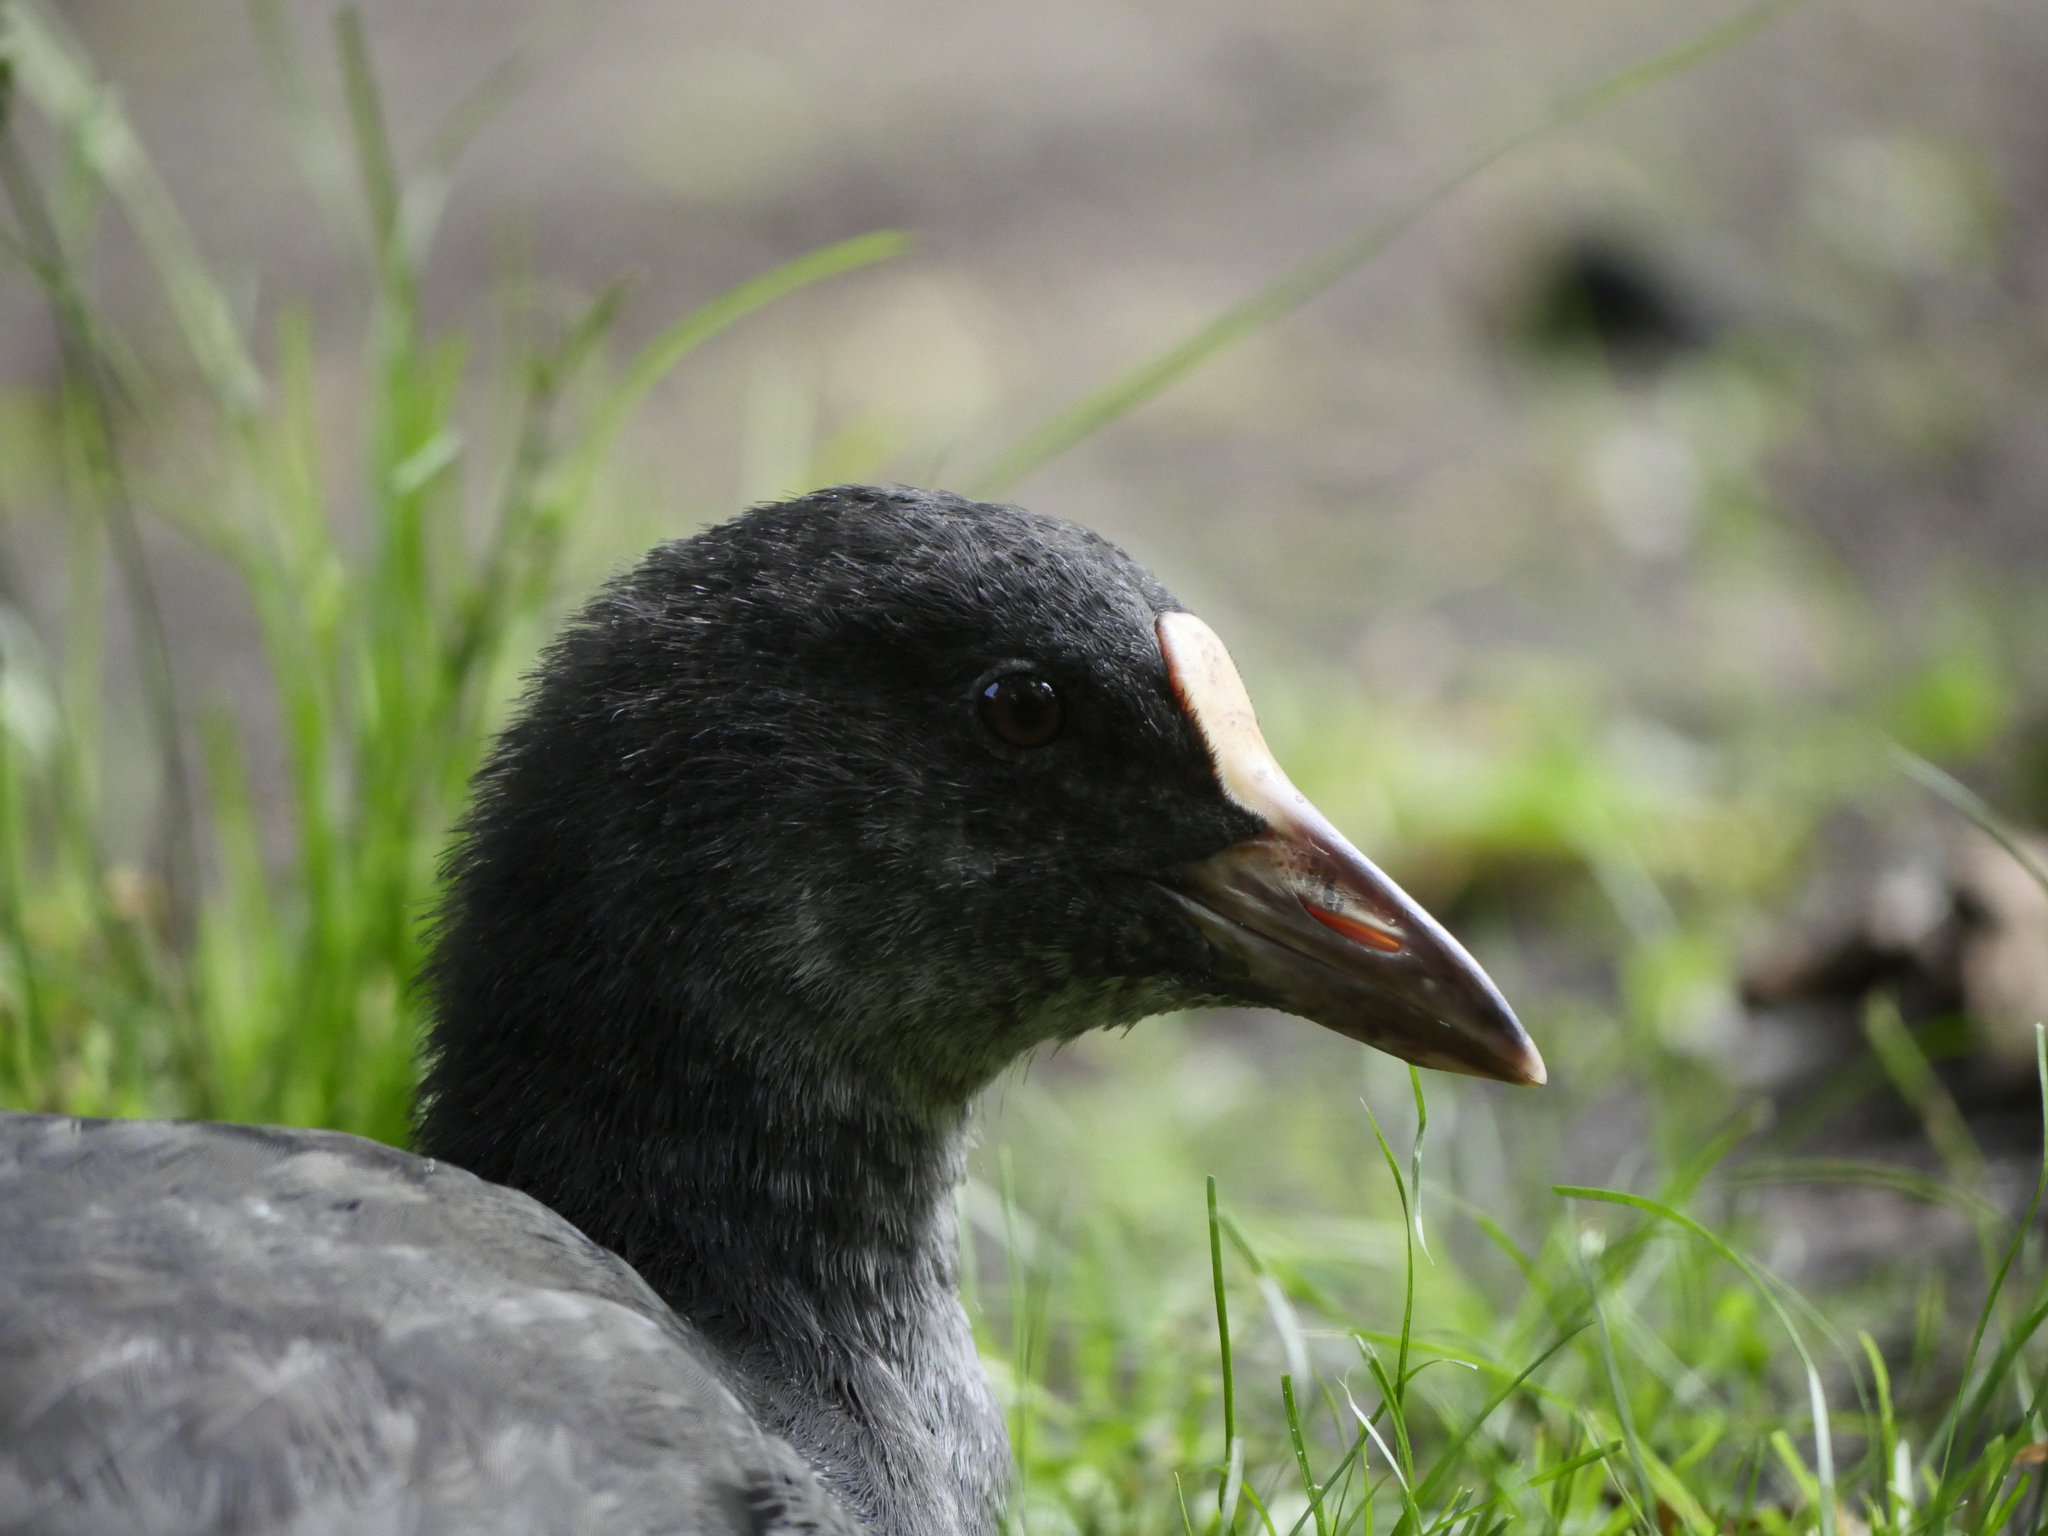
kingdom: Animalia
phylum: Chordata
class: Aves
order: Gruiformes
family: Rallidae
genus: Fulica
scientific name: Fulica atra
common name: Eurasian coot
